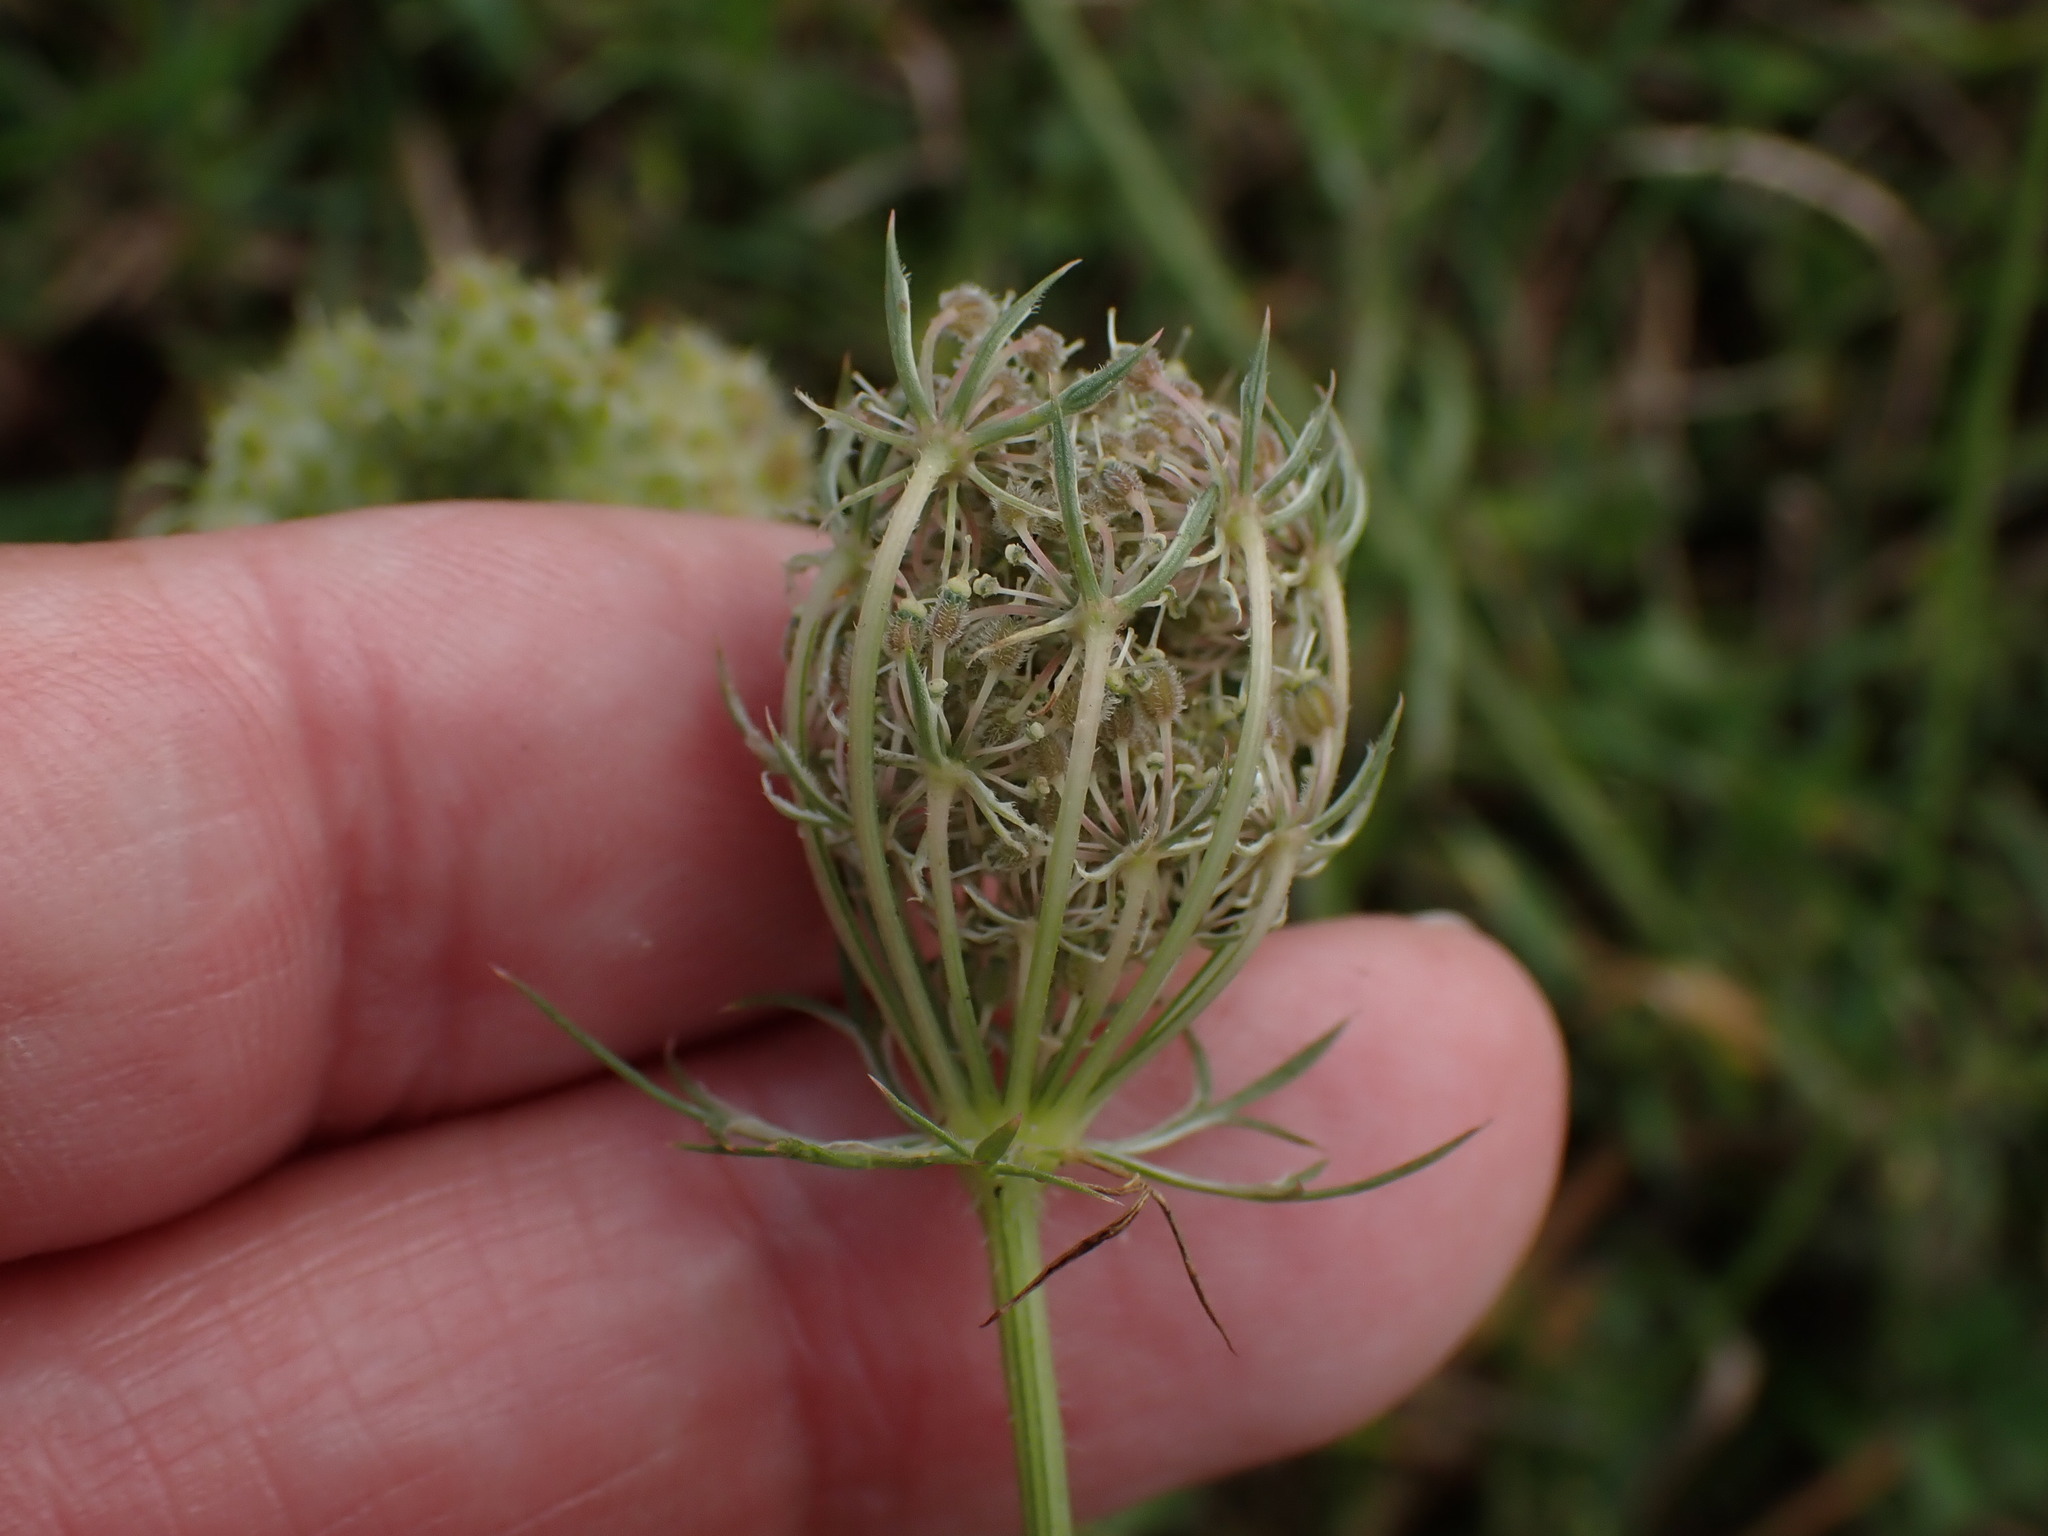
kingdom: Plantae
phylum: Tracheophyta
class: Magnoliopsida
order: Apiales
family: Apiaceae
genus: Daucus
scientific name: Daucus carota
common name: Wild carrot
